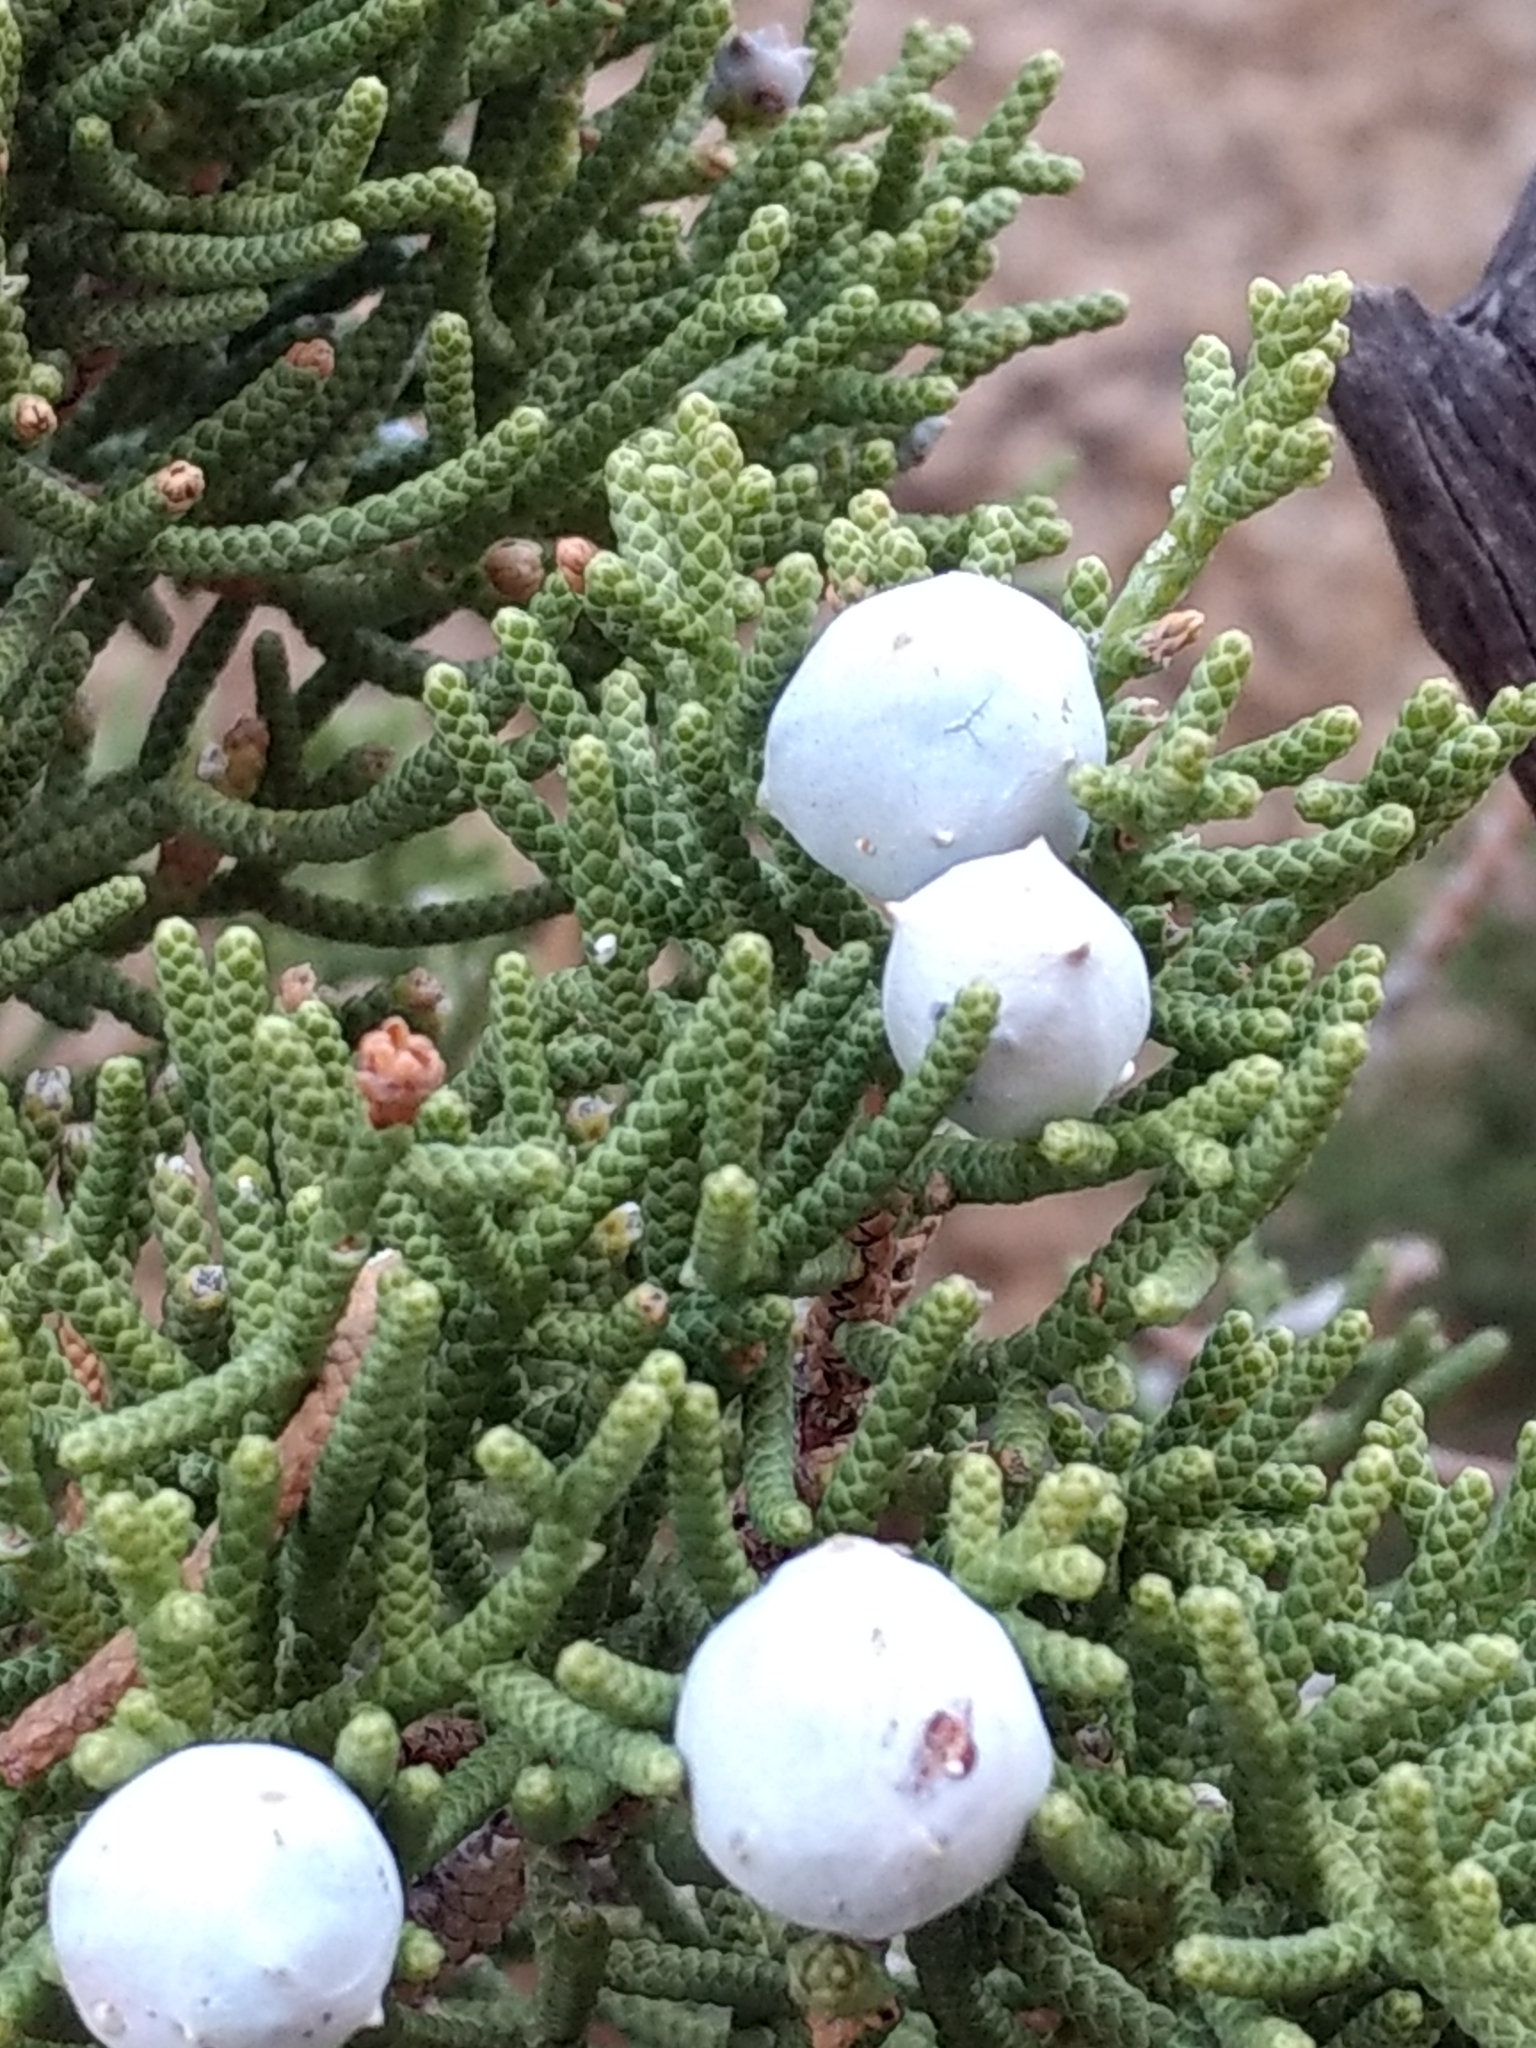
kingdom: Plantae
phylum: Tracheophyta
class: Pinopsida
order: Pinales
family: Cupressaceae
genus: Juniperus
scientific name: Juniperus californica
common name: California juniper
